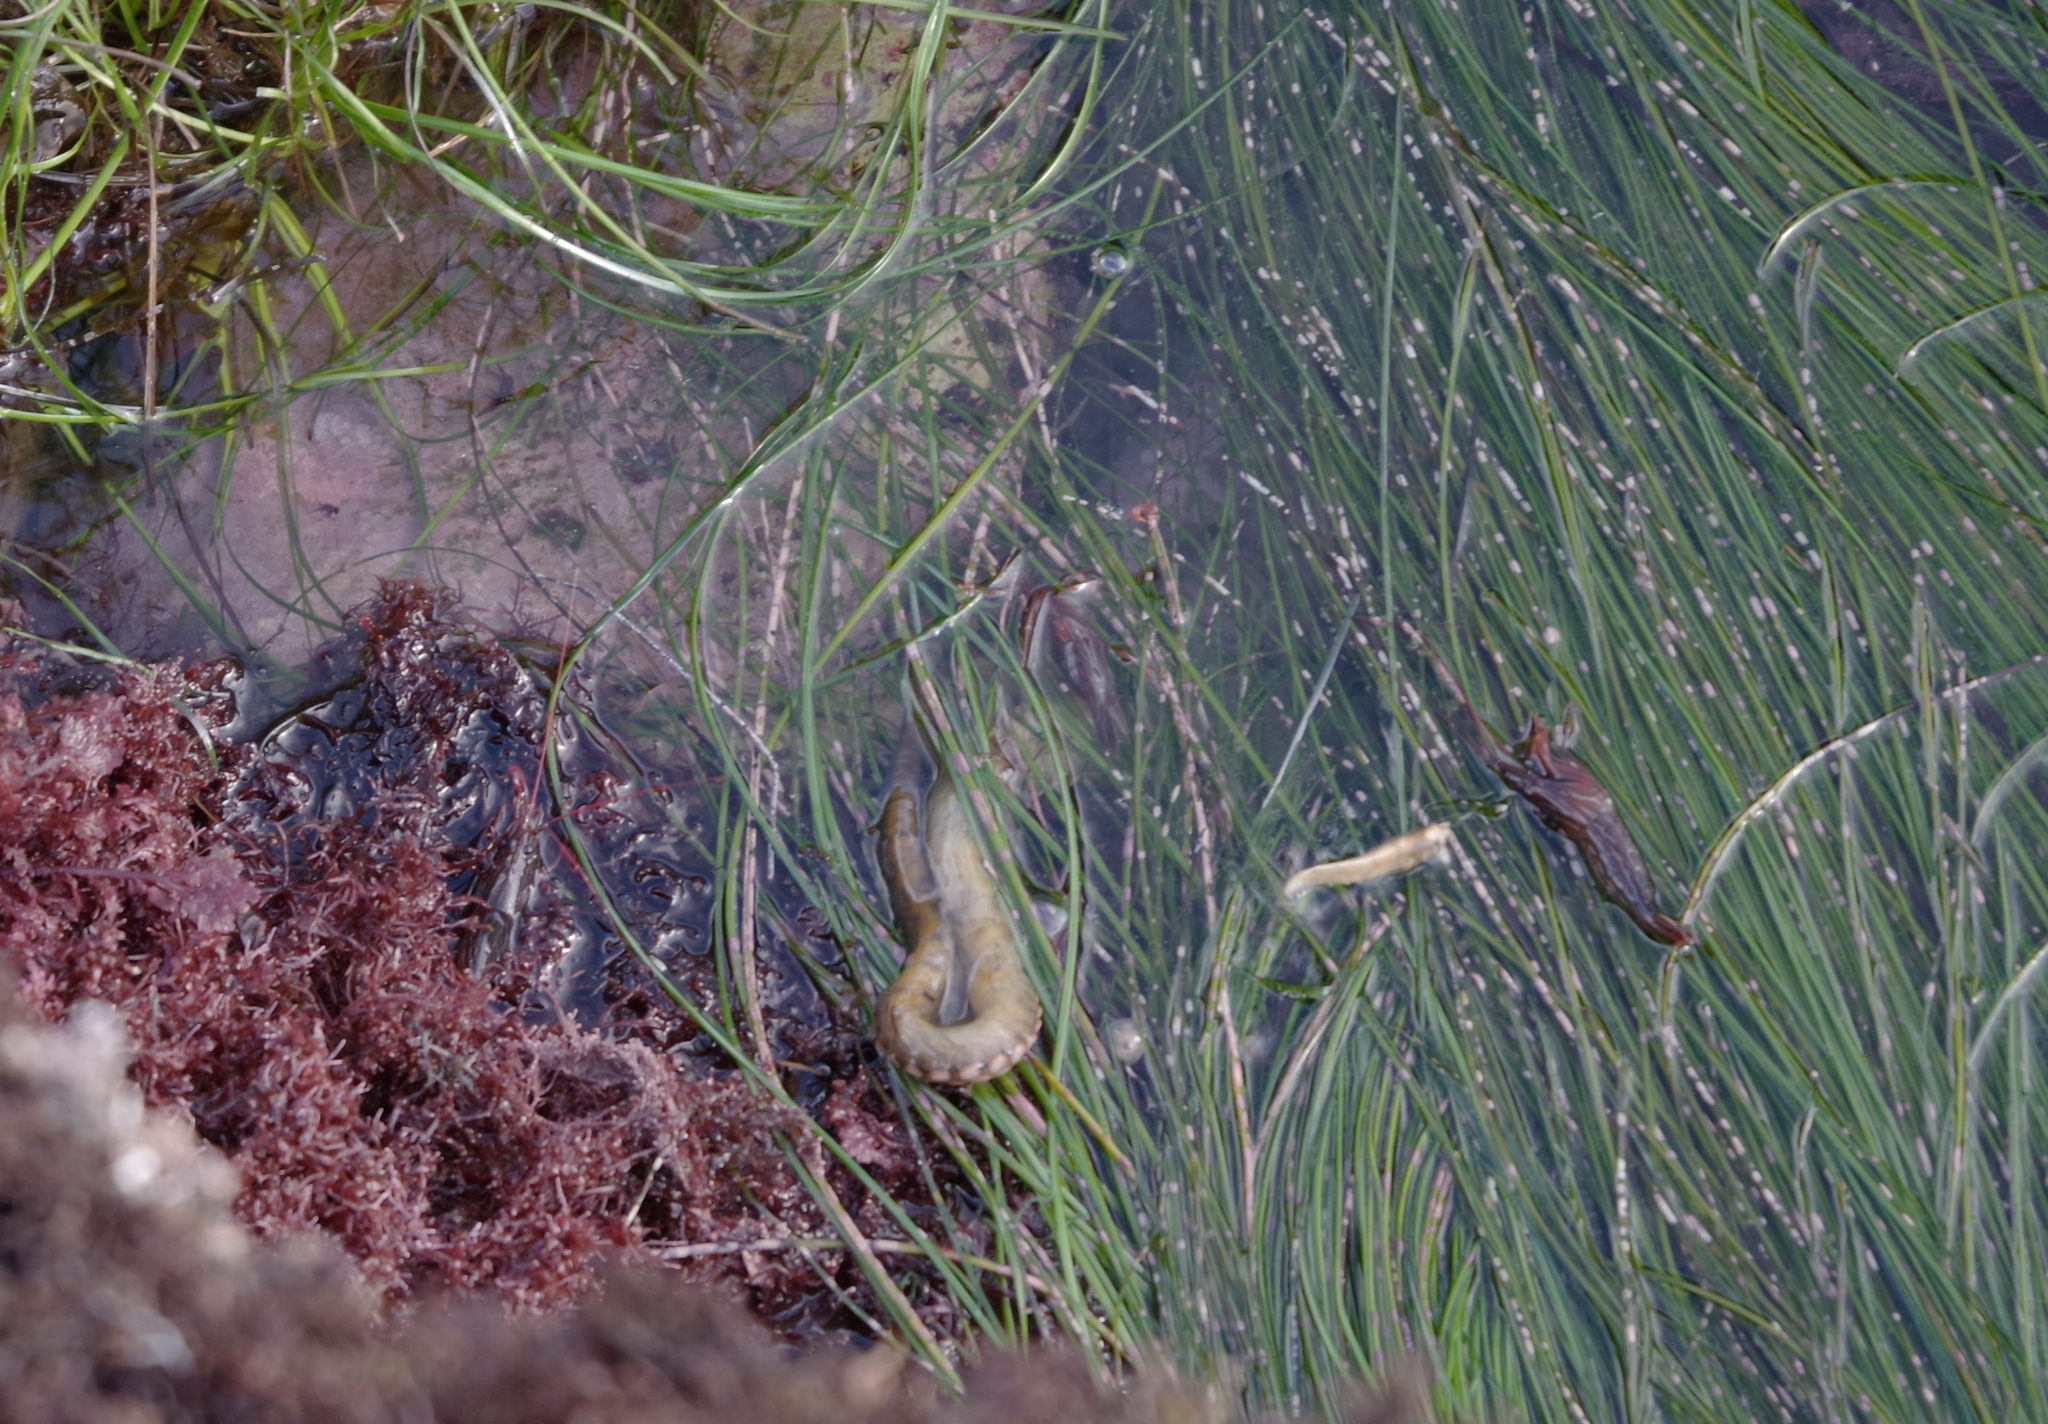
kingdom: Animalia
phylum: Mollusca
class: Cephalopoda
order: Octopoda
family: Octopodidae
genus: Octopus
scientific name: Octopus bimaculoides
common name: California two-spot octopus
